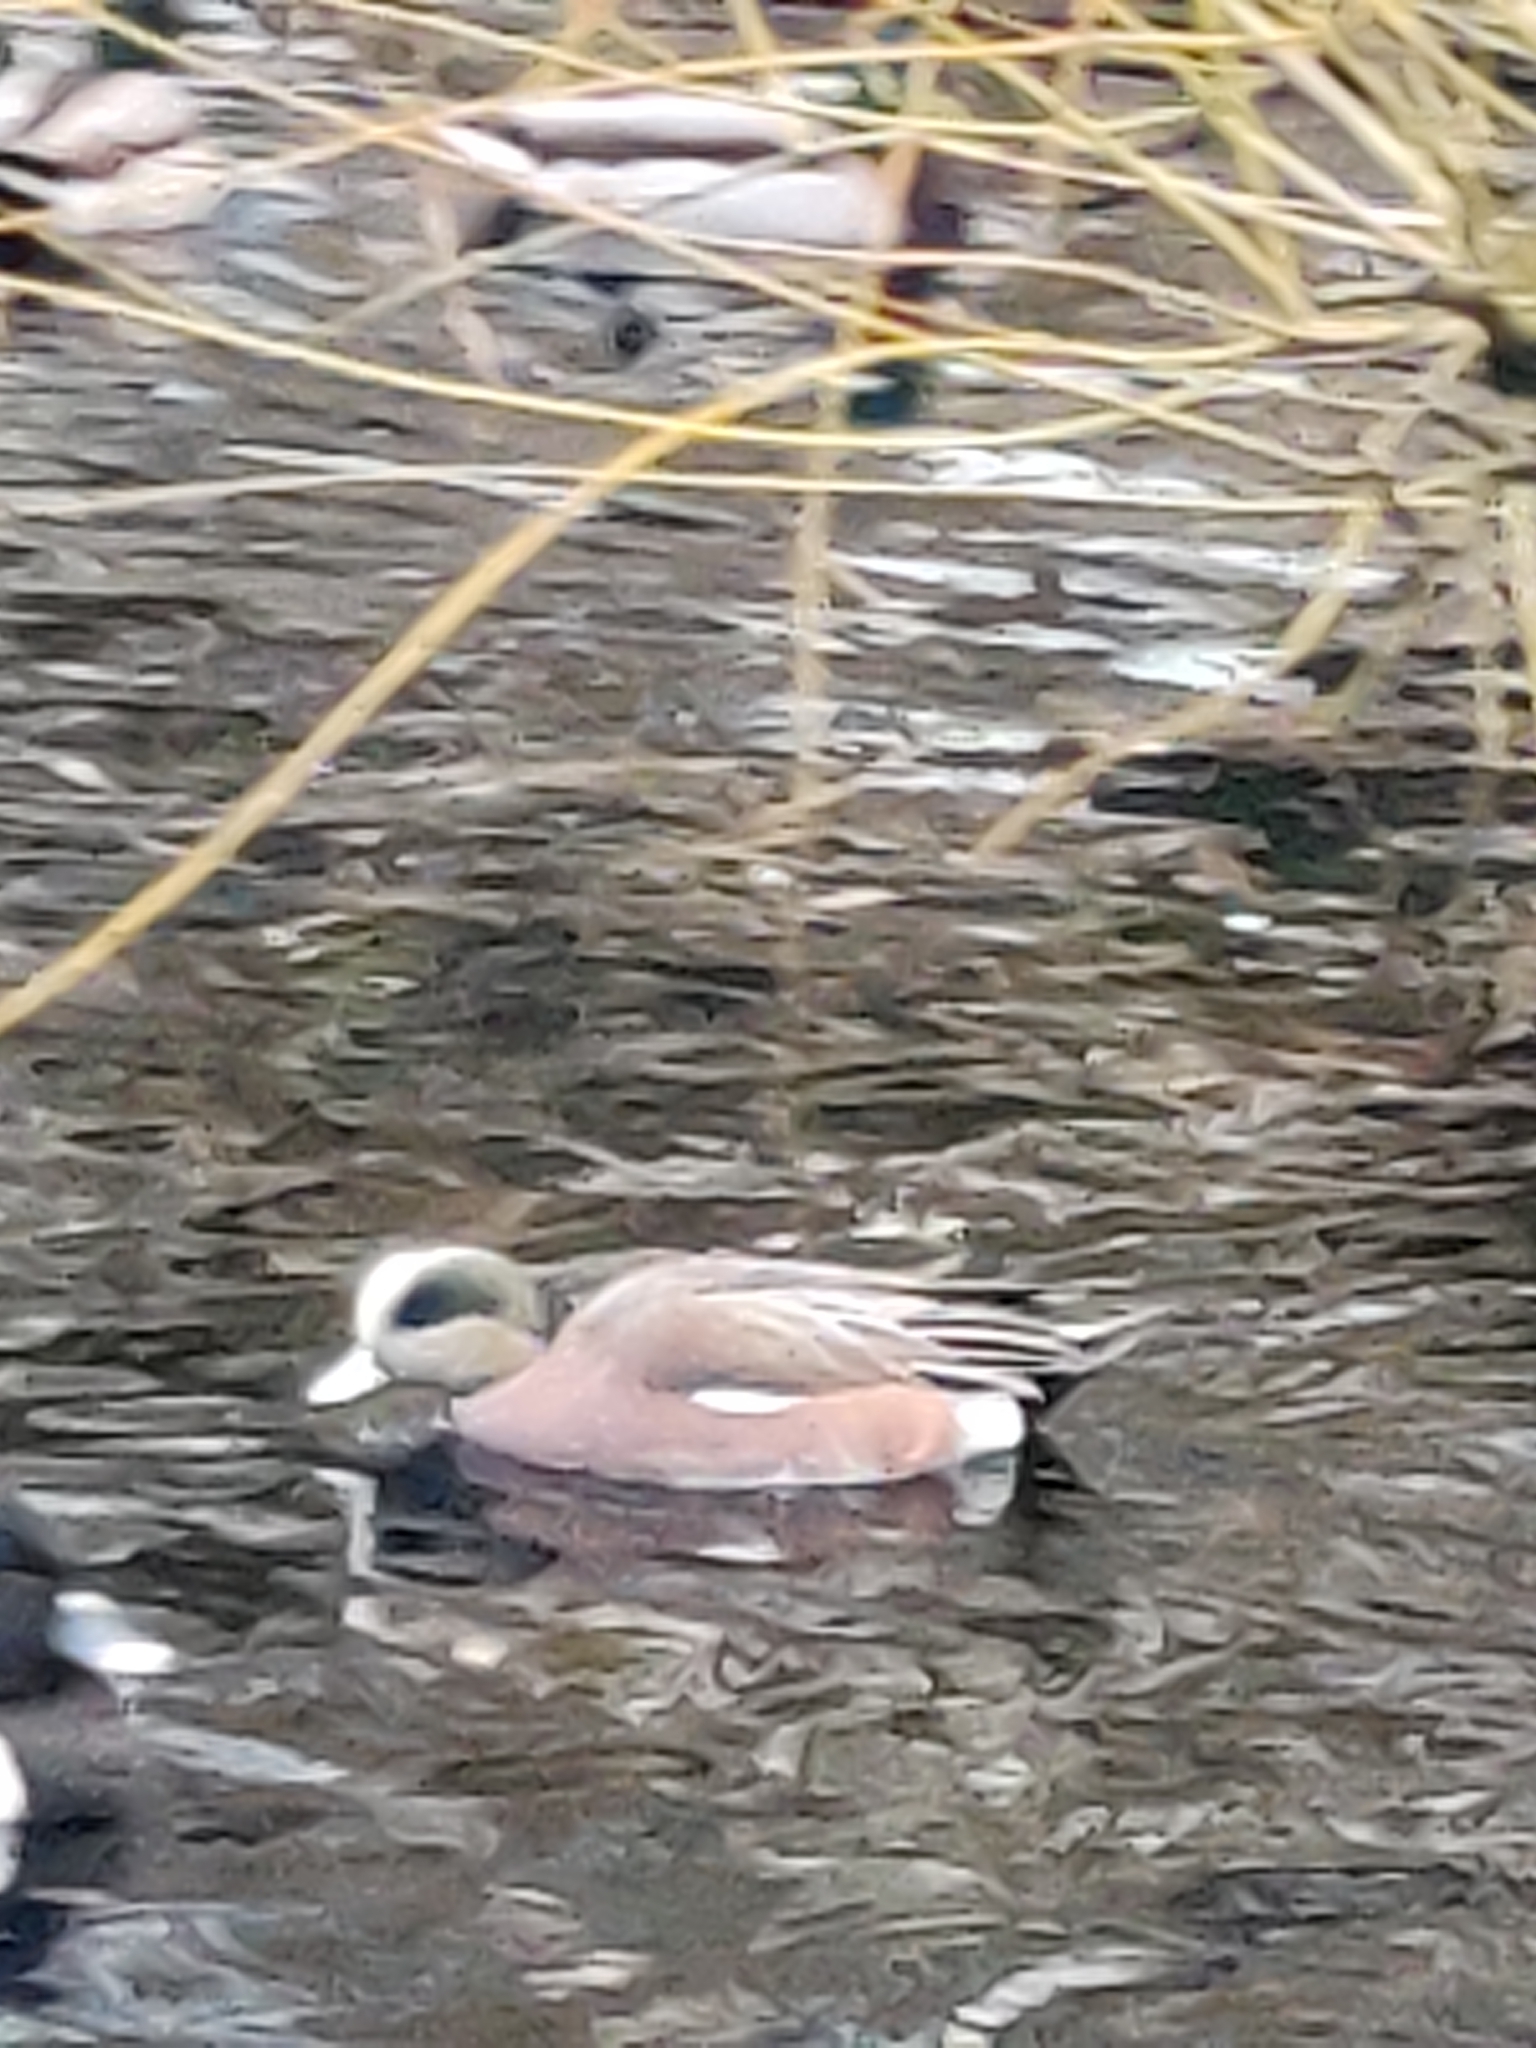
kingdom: Animalia
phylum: Chordata
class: Aves
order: Anseriformes
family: Anatidae
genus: Mareca
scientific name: Mareca americana
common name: American wigeon
